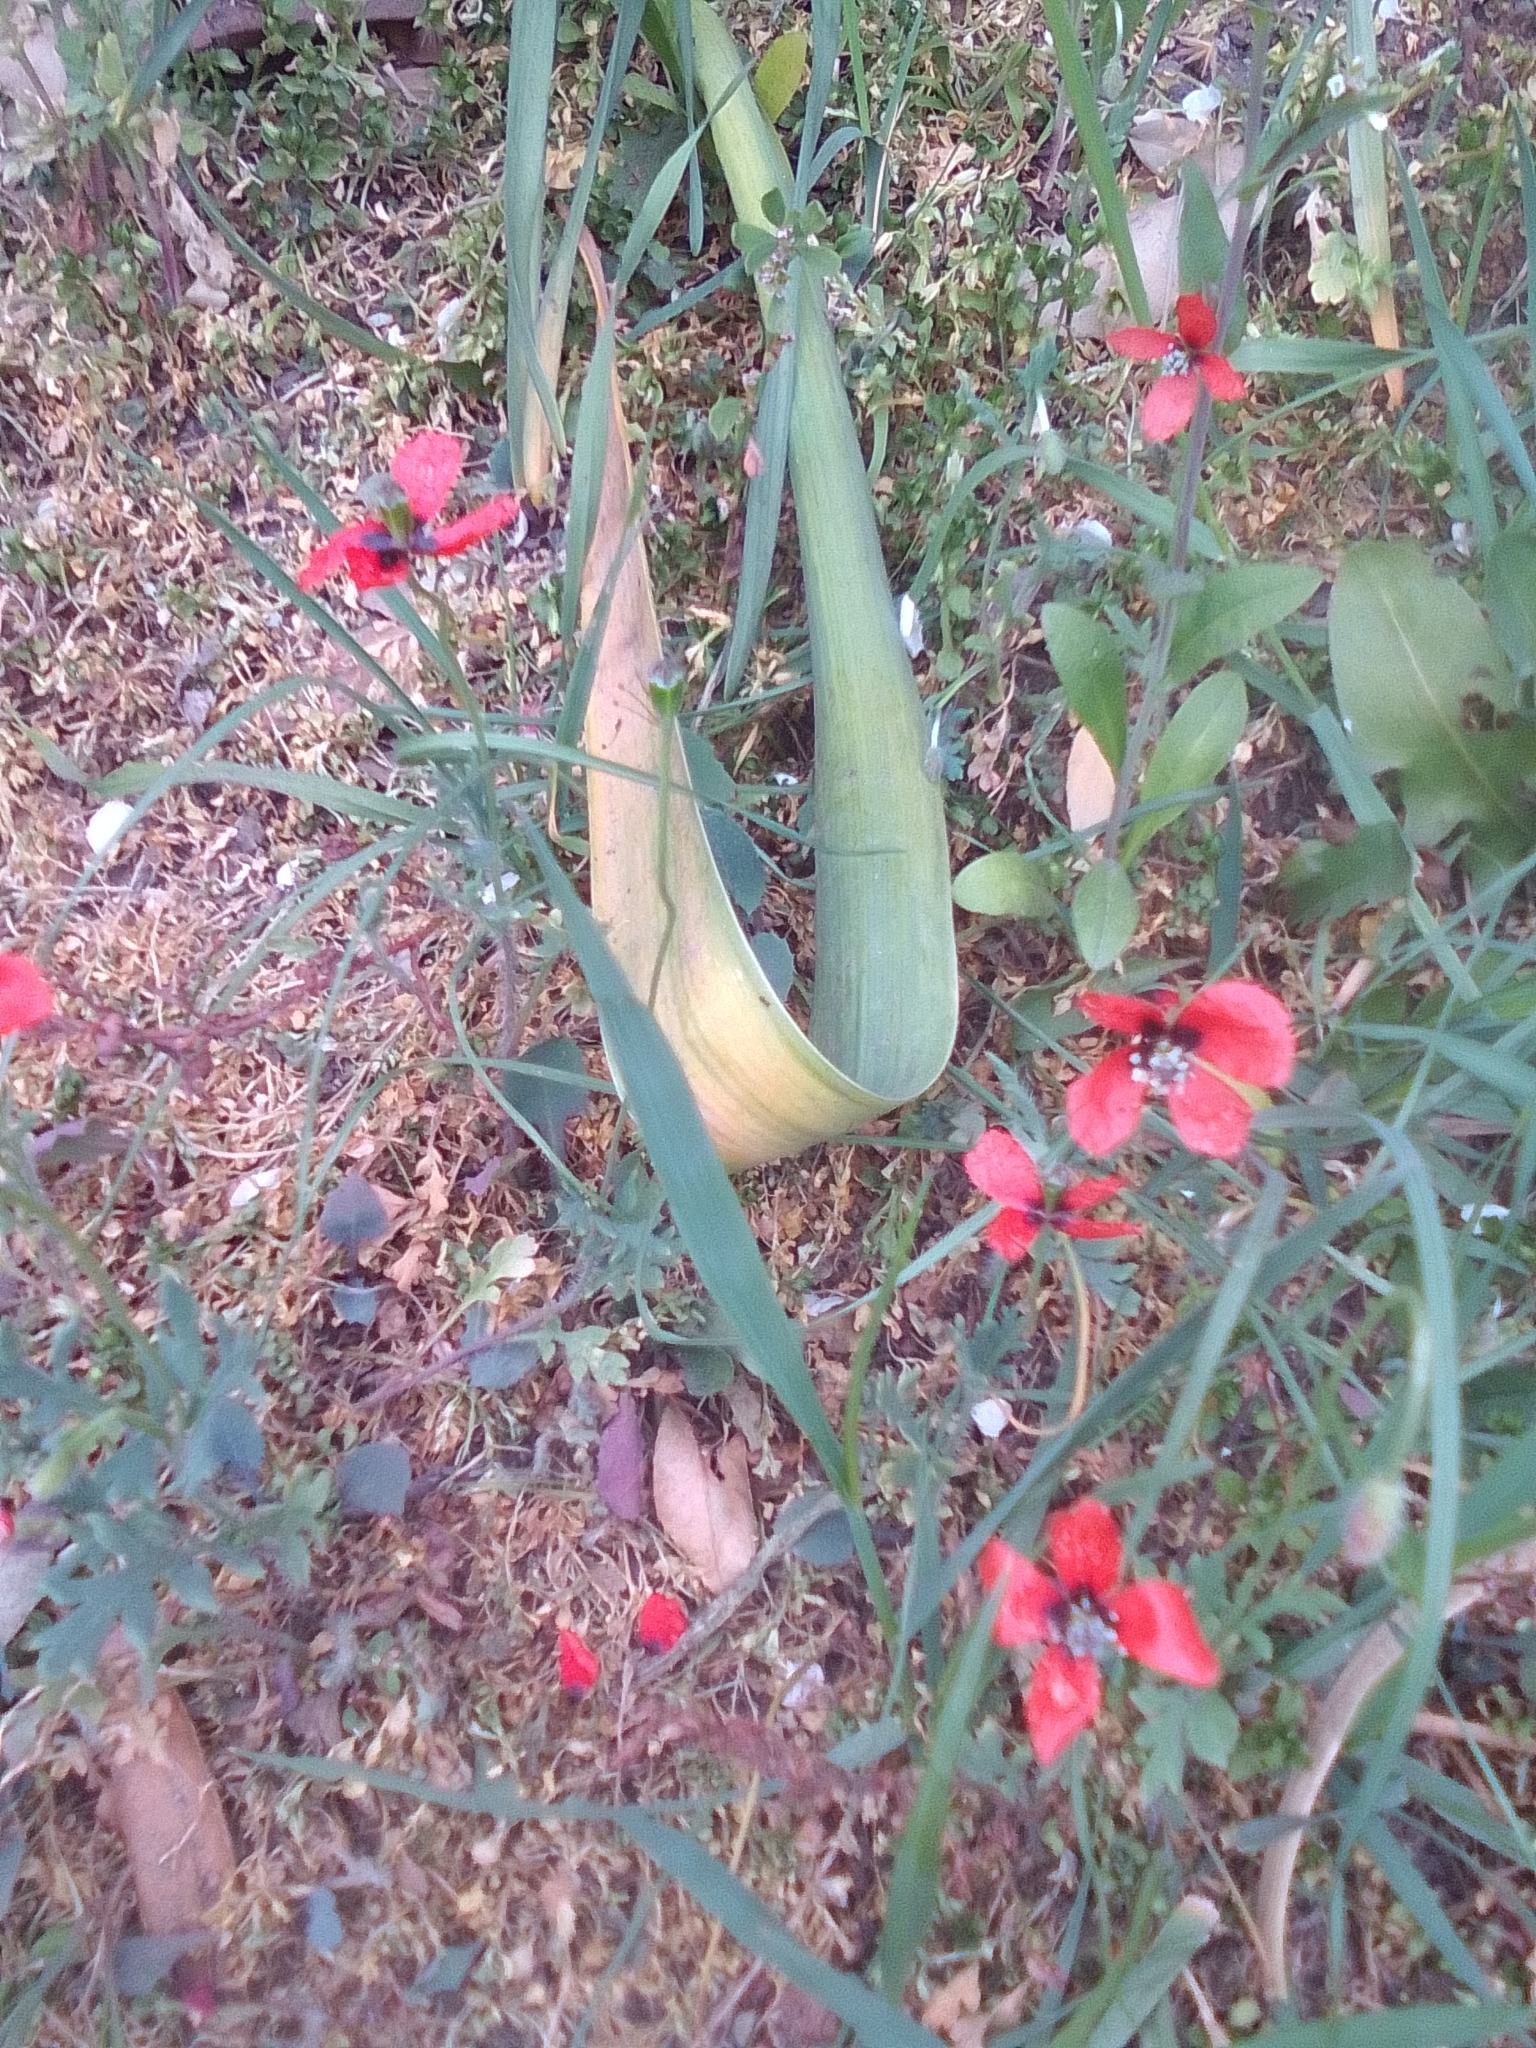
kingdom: Plantae
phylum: Tracheophyta
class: Magnoliopsida
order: Ranunculales
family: Papaveraceae
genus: Roemeria
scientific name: Roemeria hispida
